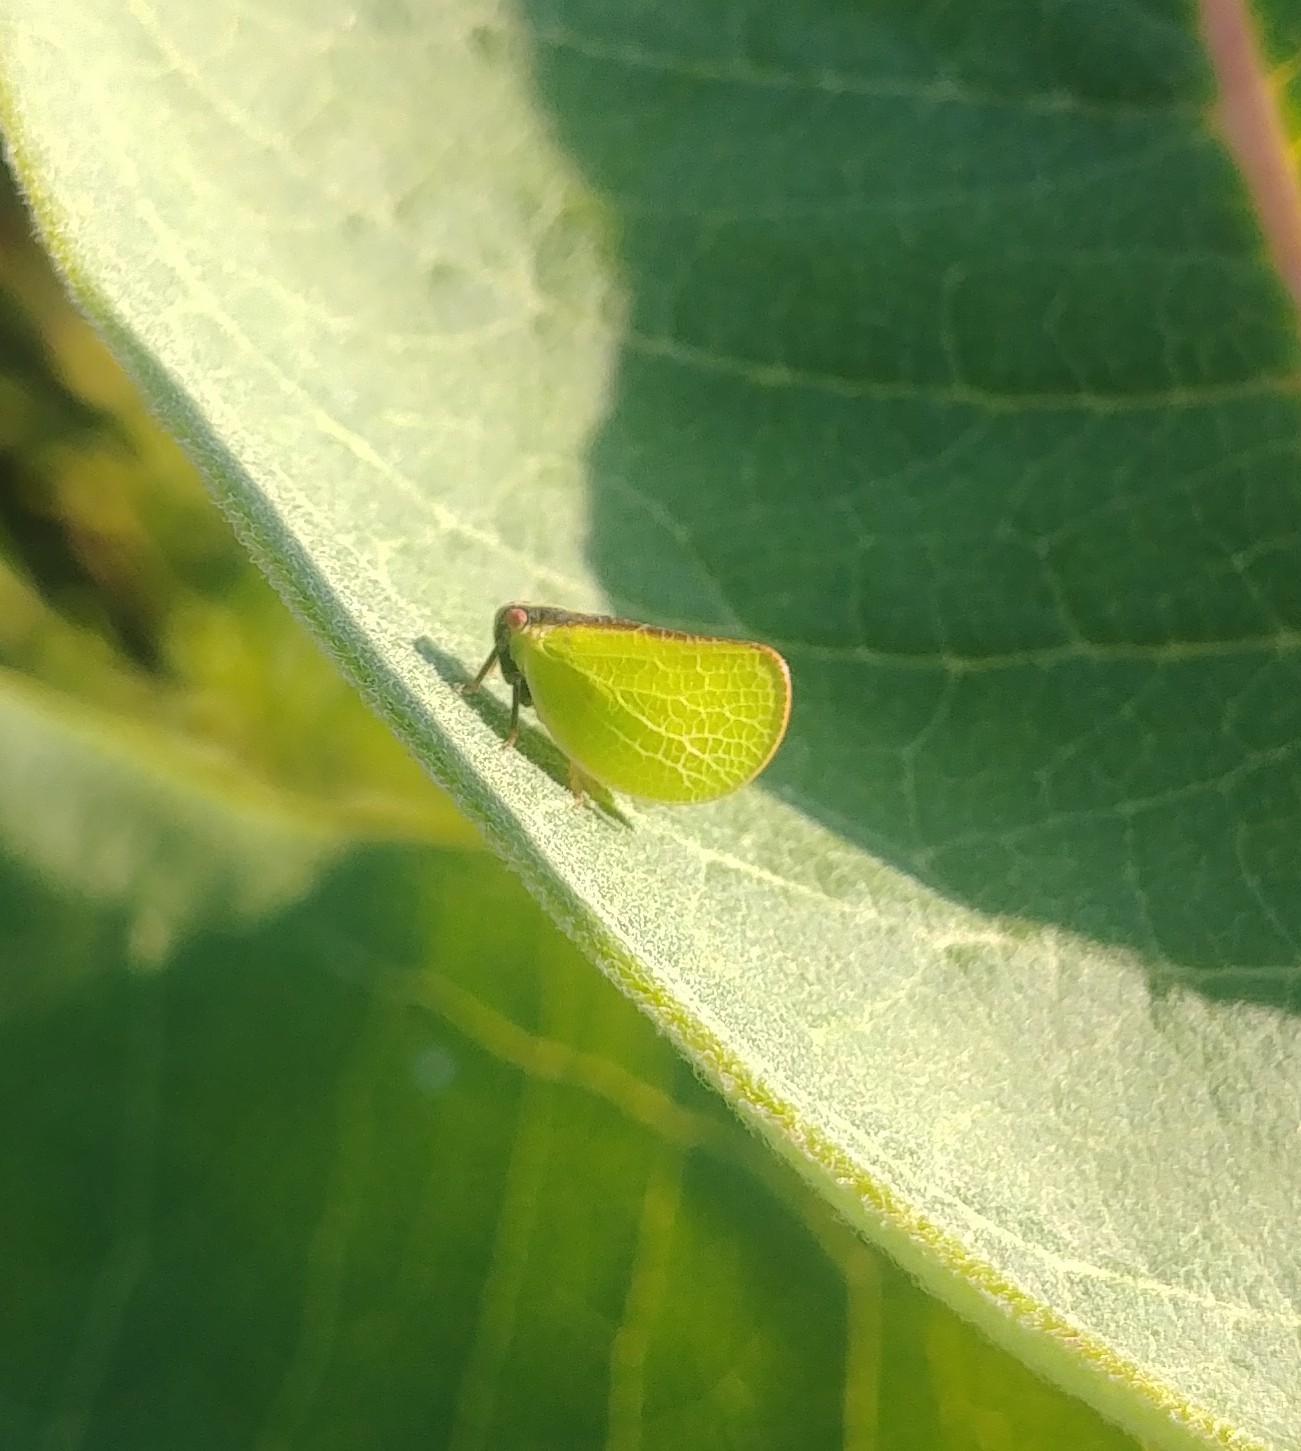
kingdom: Animalia
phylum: Arthropoda
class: Insecta
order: Hemiptera
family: Acanaloniidae
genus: Acanalonia
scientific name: Acanalonia bivittata
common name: Two-striped planthopper
